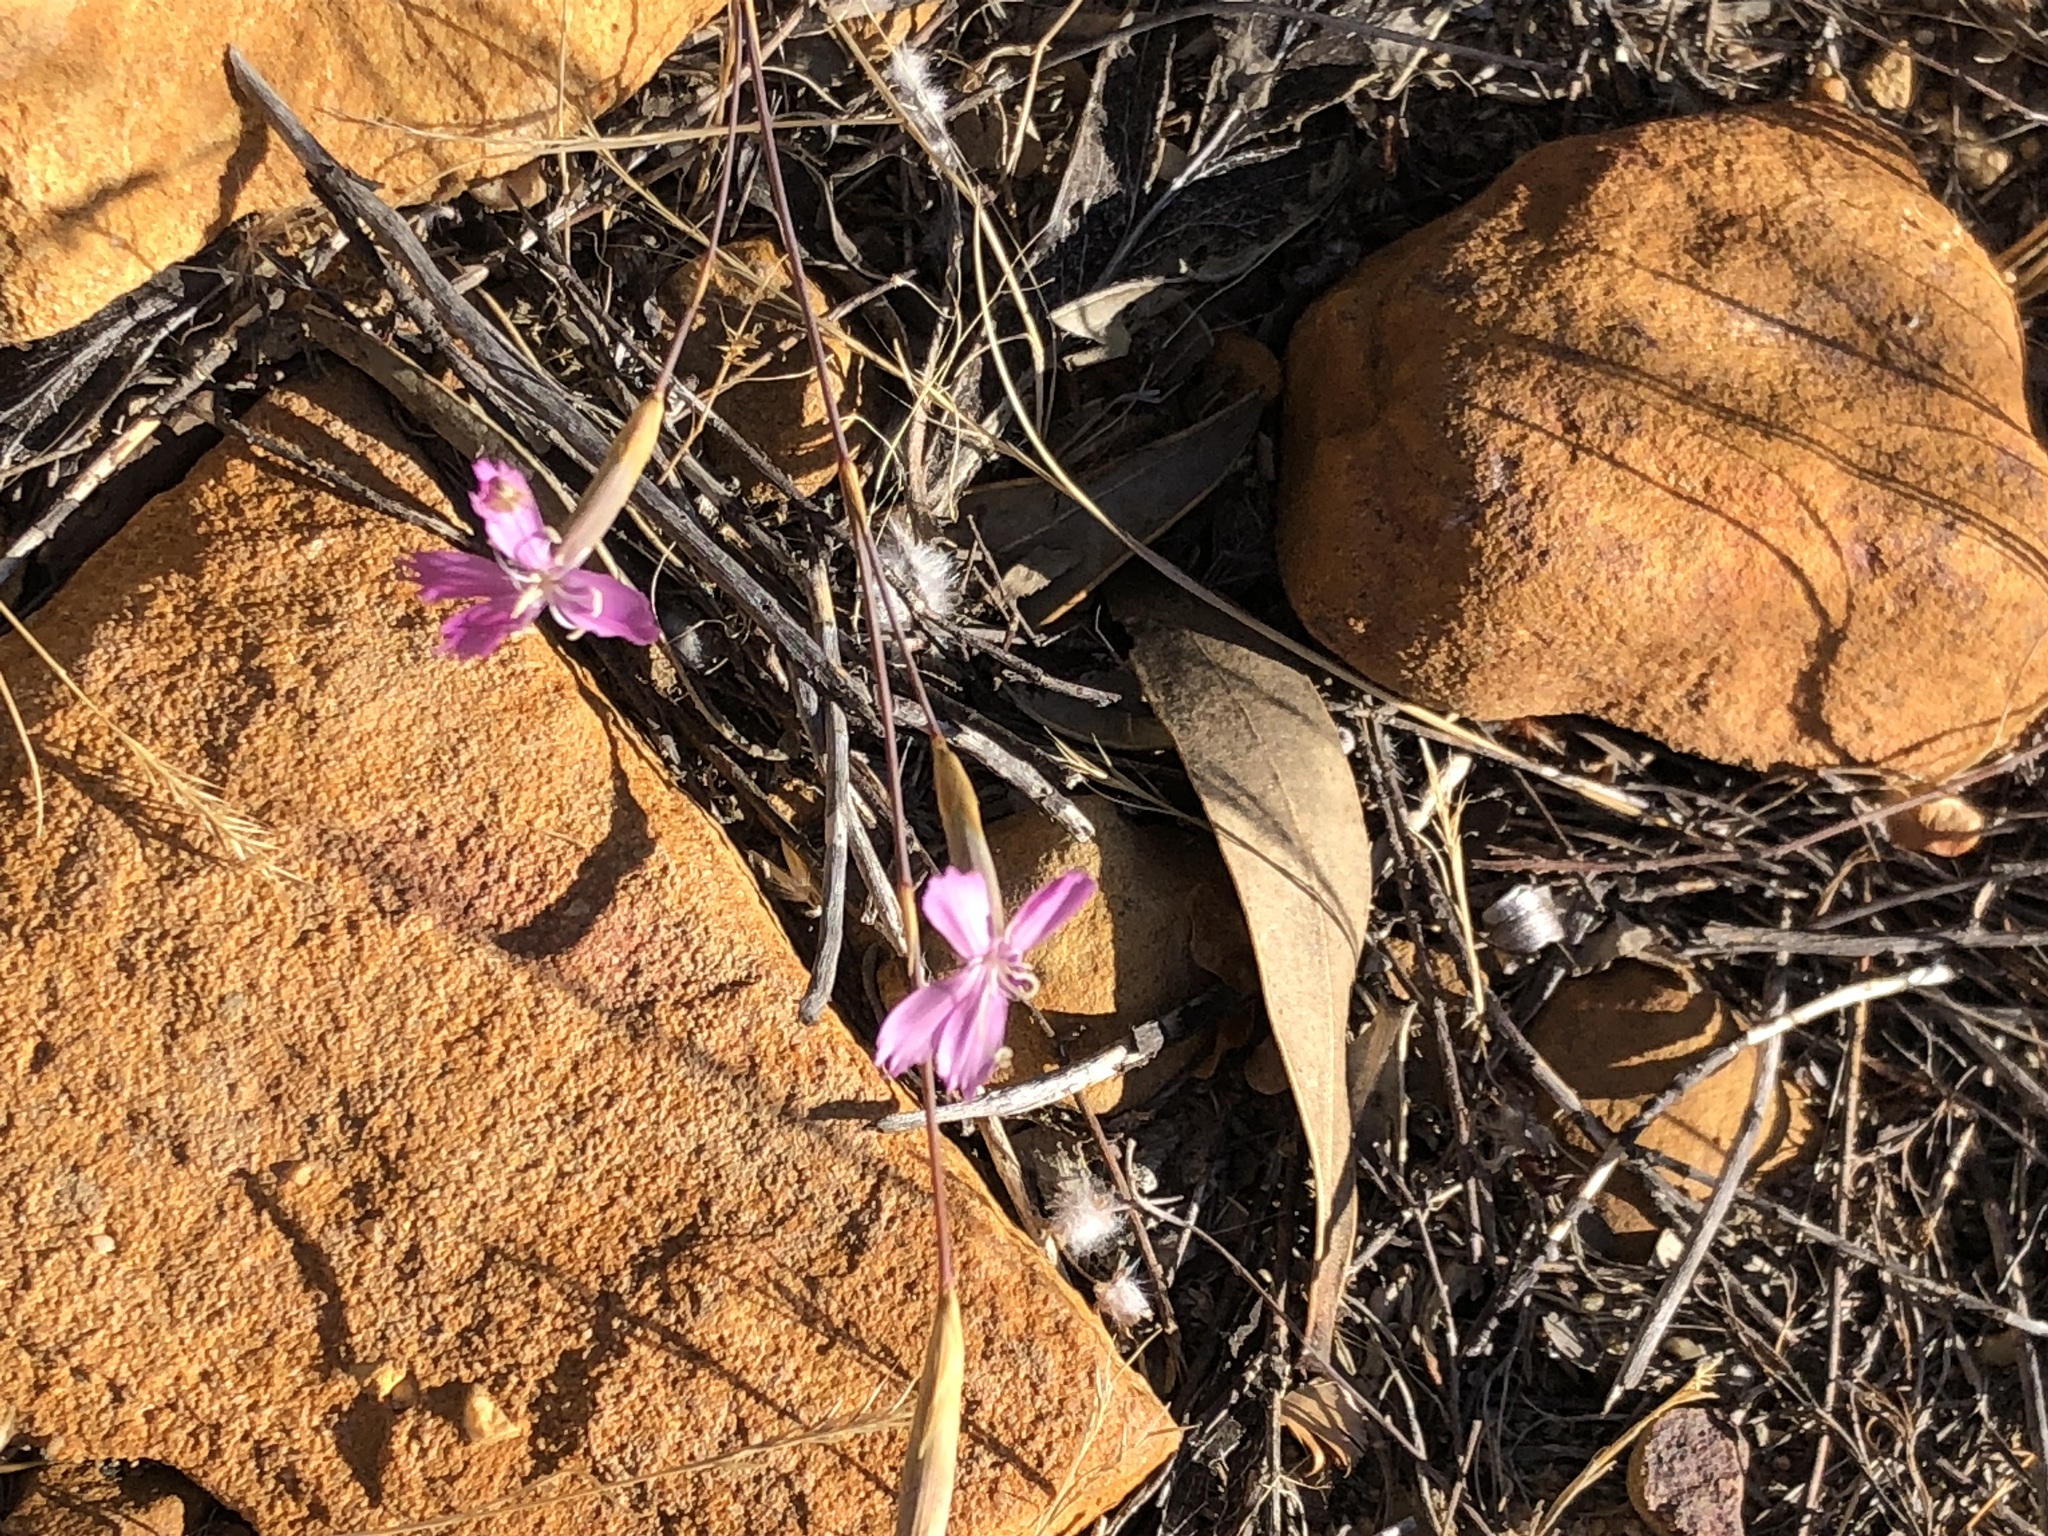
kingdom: Plantae
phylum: Tracheophyta
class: Magnoliopsida
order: Caryophyllales
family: Caryophyllaceae
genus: Dianthus
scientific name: Dianthus bolusii
